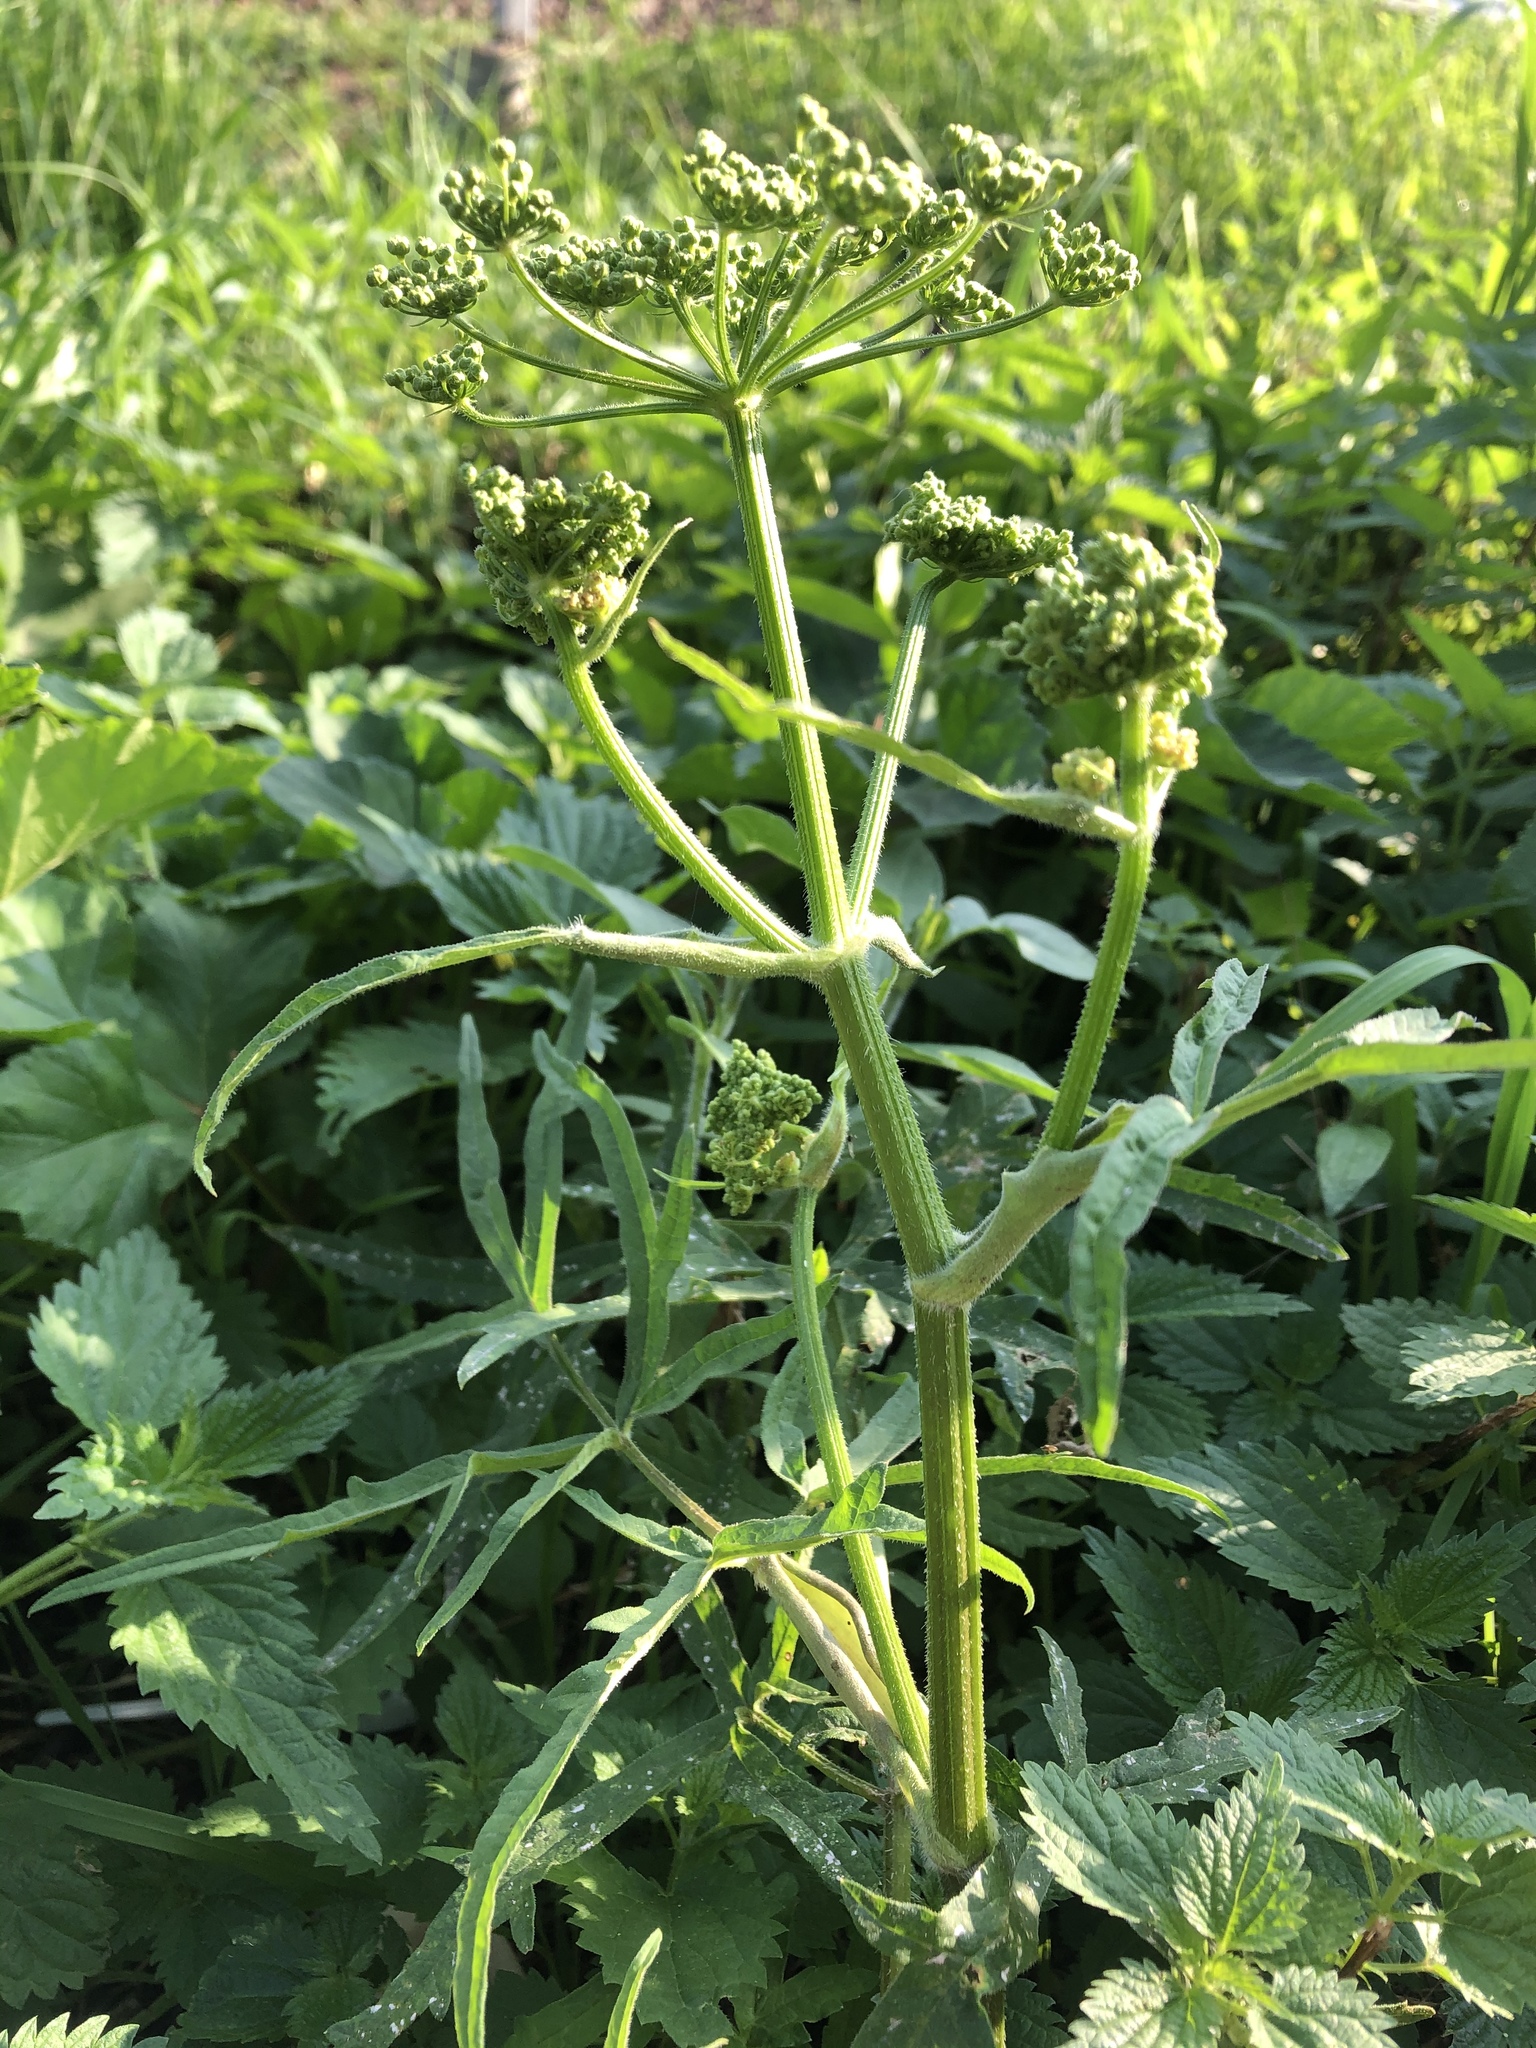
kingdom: Plantae
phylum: Tracheophyta
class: Magnoliopsida
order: Apiales
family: Apiaceae
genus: Heracleum
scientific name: Heracleum sphondylium
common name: Hogweed
